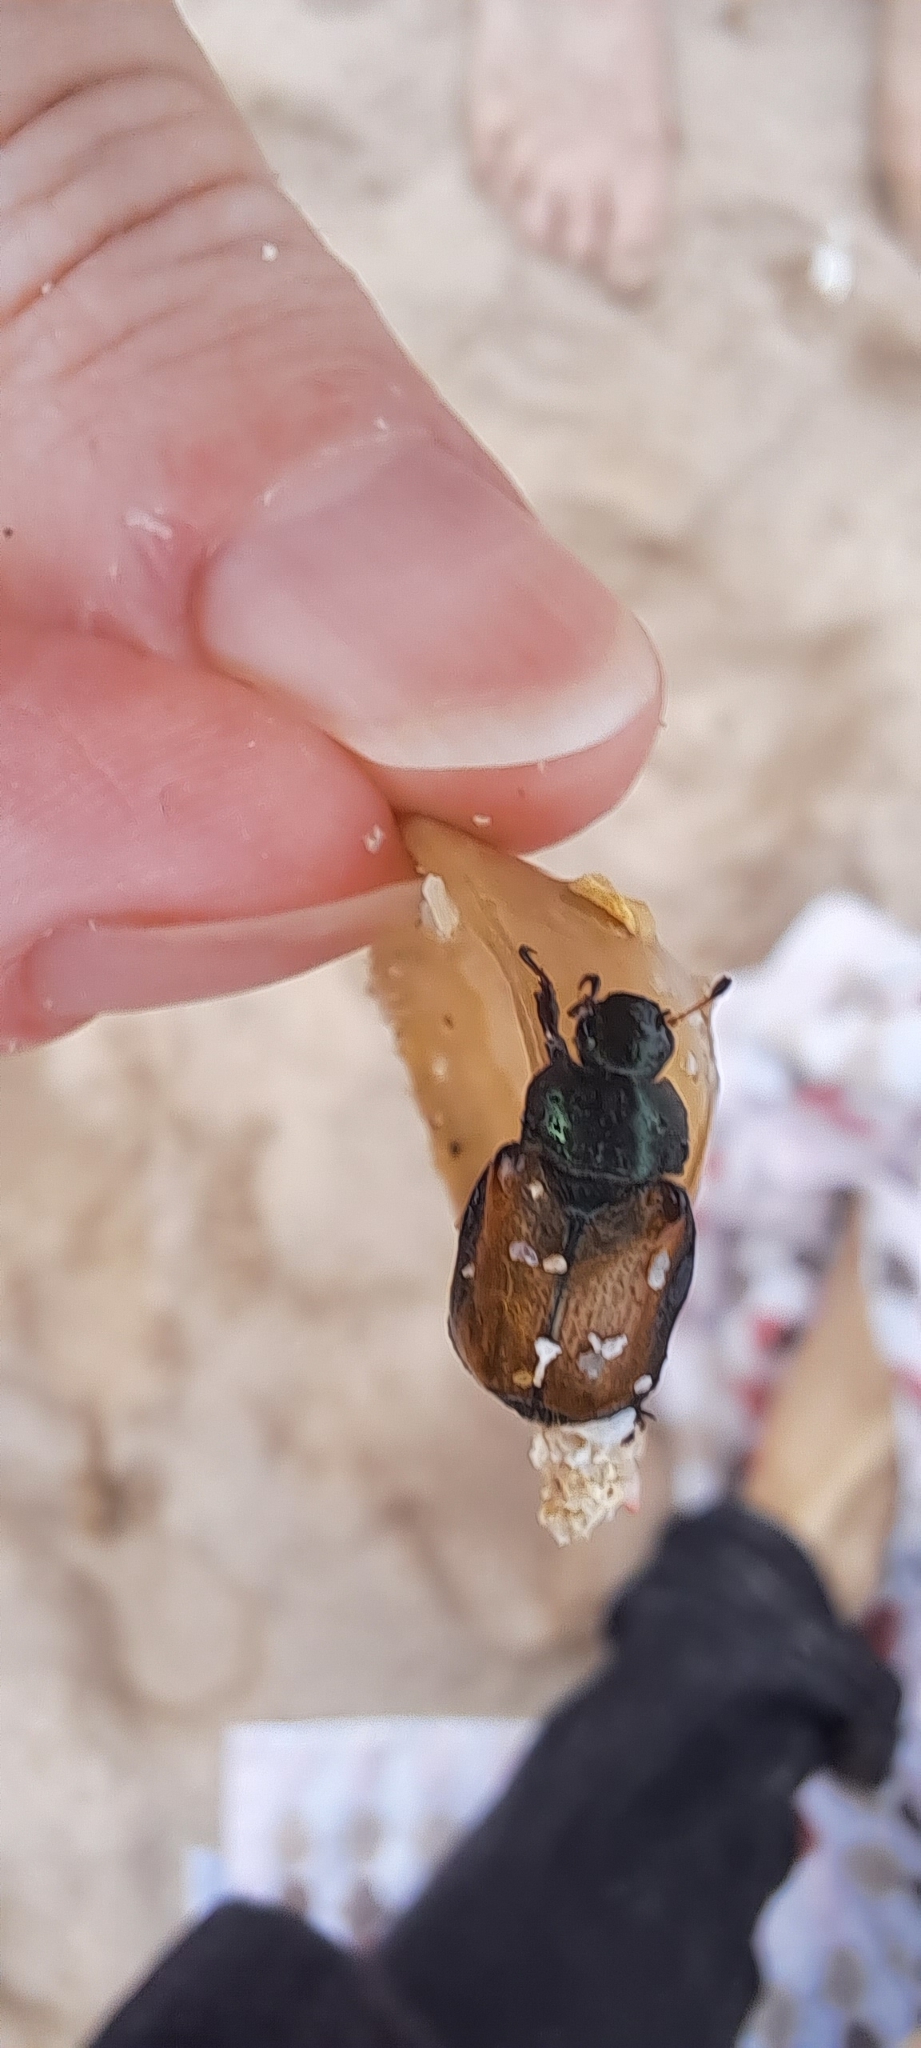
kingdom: Animalia
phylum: Arthropoda
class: Insecta
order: Coleoptera
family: Scarabaeidae
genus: Phyllopertha
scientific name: Phyllopertha horticola
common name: Garden chafer
